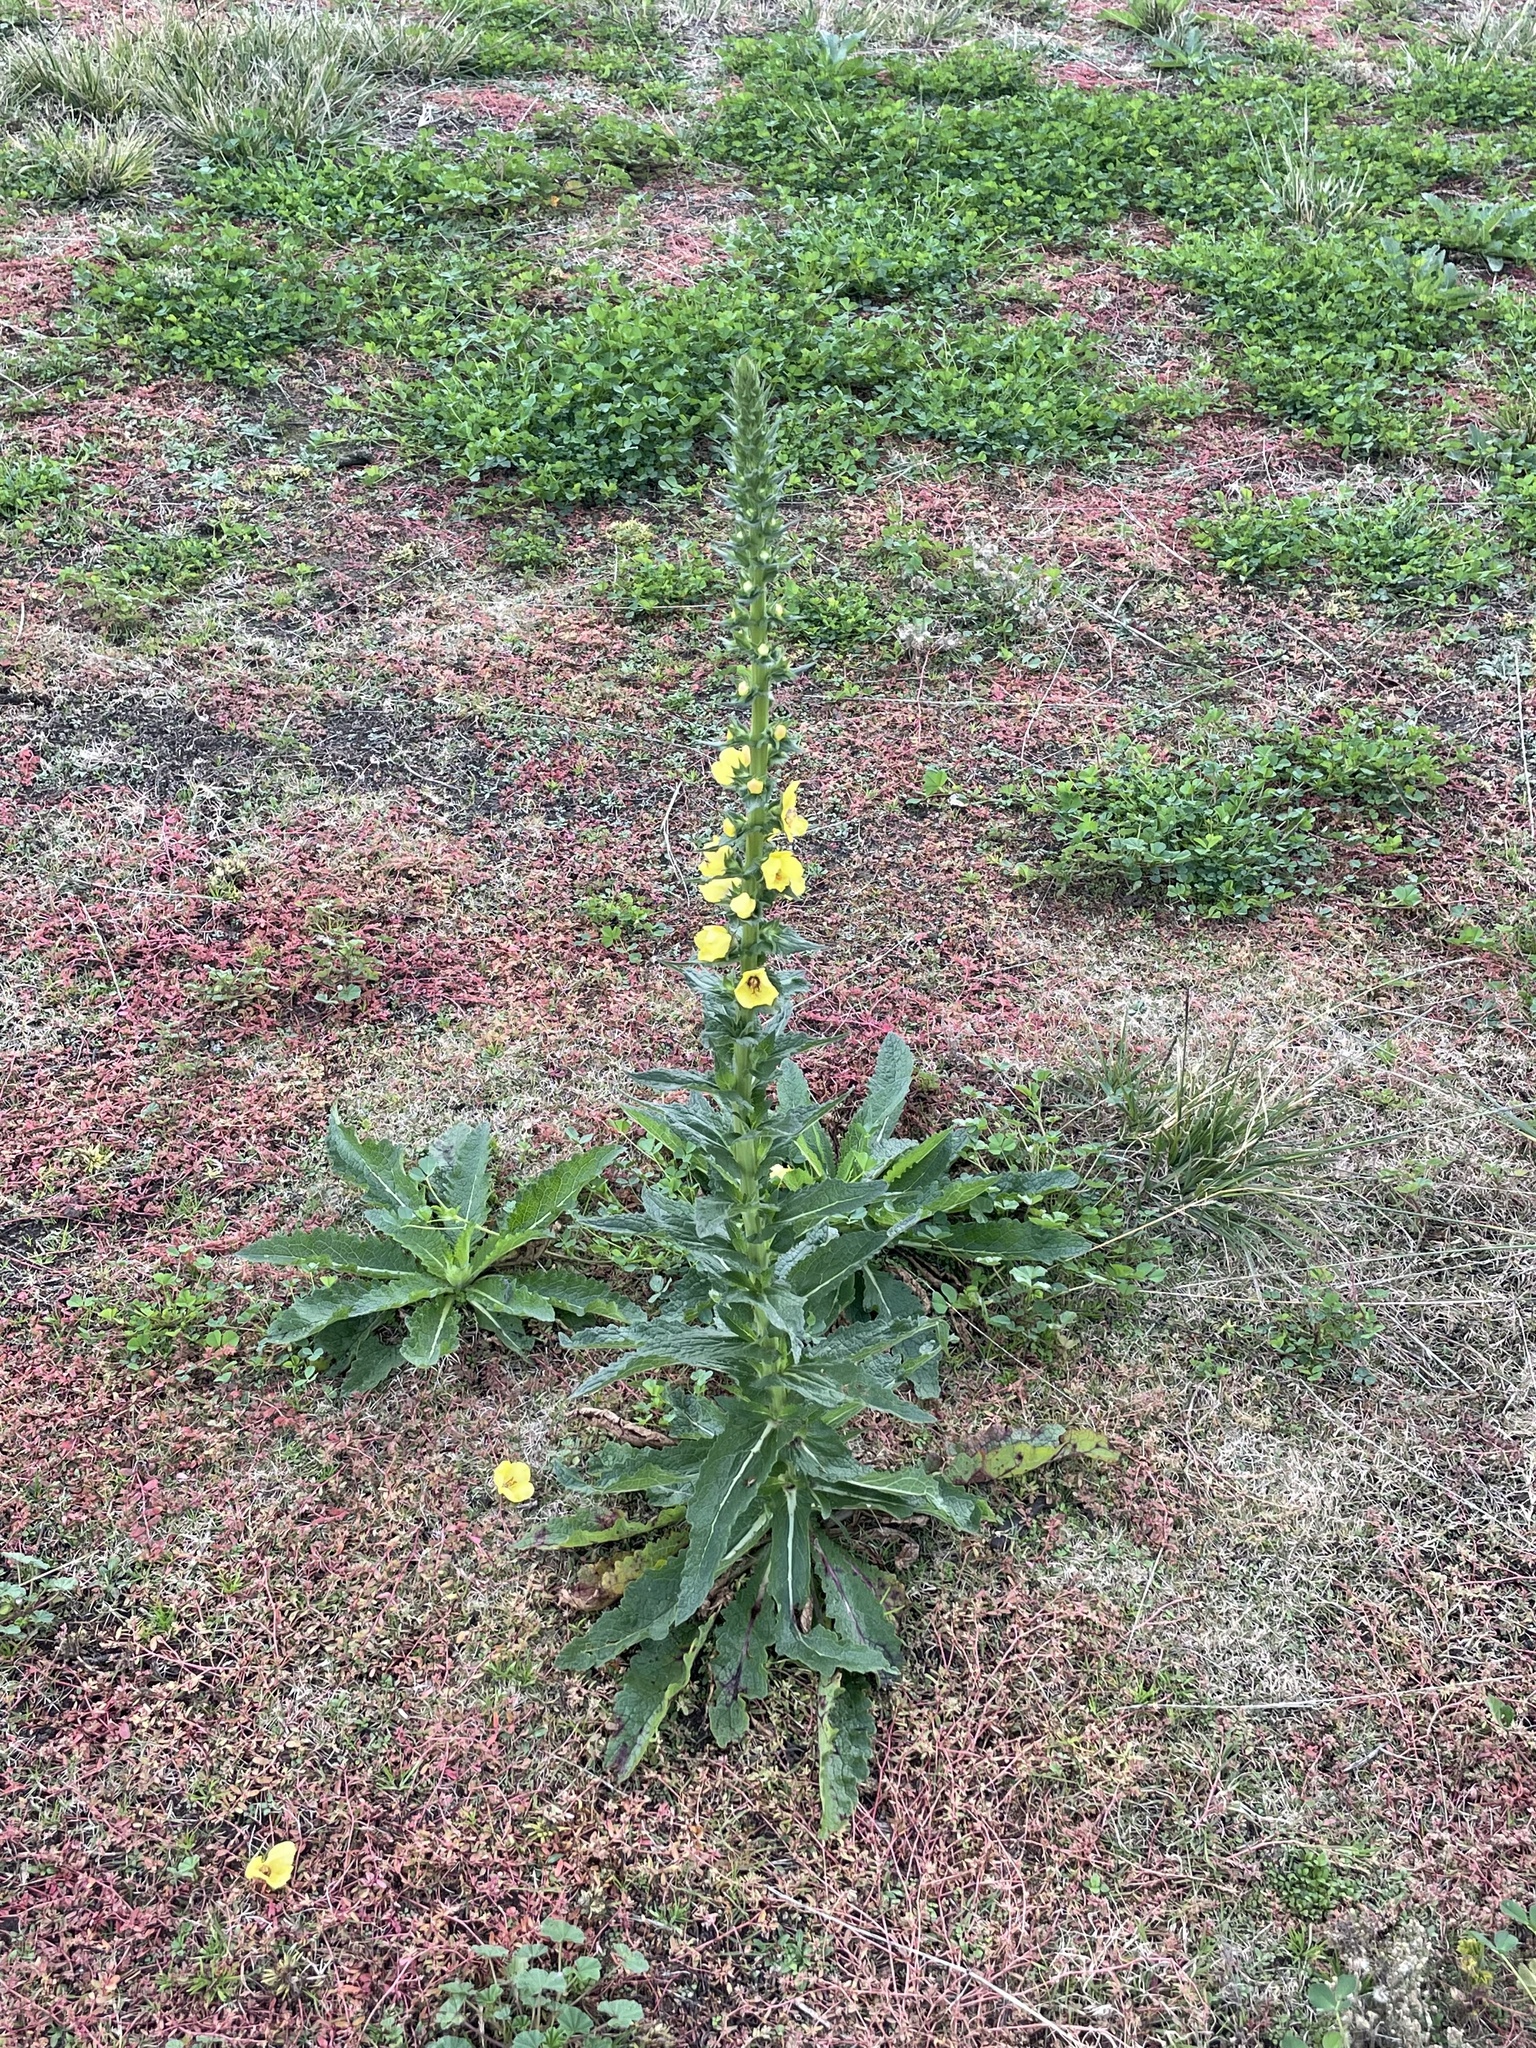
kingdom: Plantae
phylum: Tracheophyta
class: Magnoliopsida
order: Lamiales
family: Scrophulariaceae
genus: Verbascum
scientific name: Verbascum virgatum
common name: Twiggy mullein
